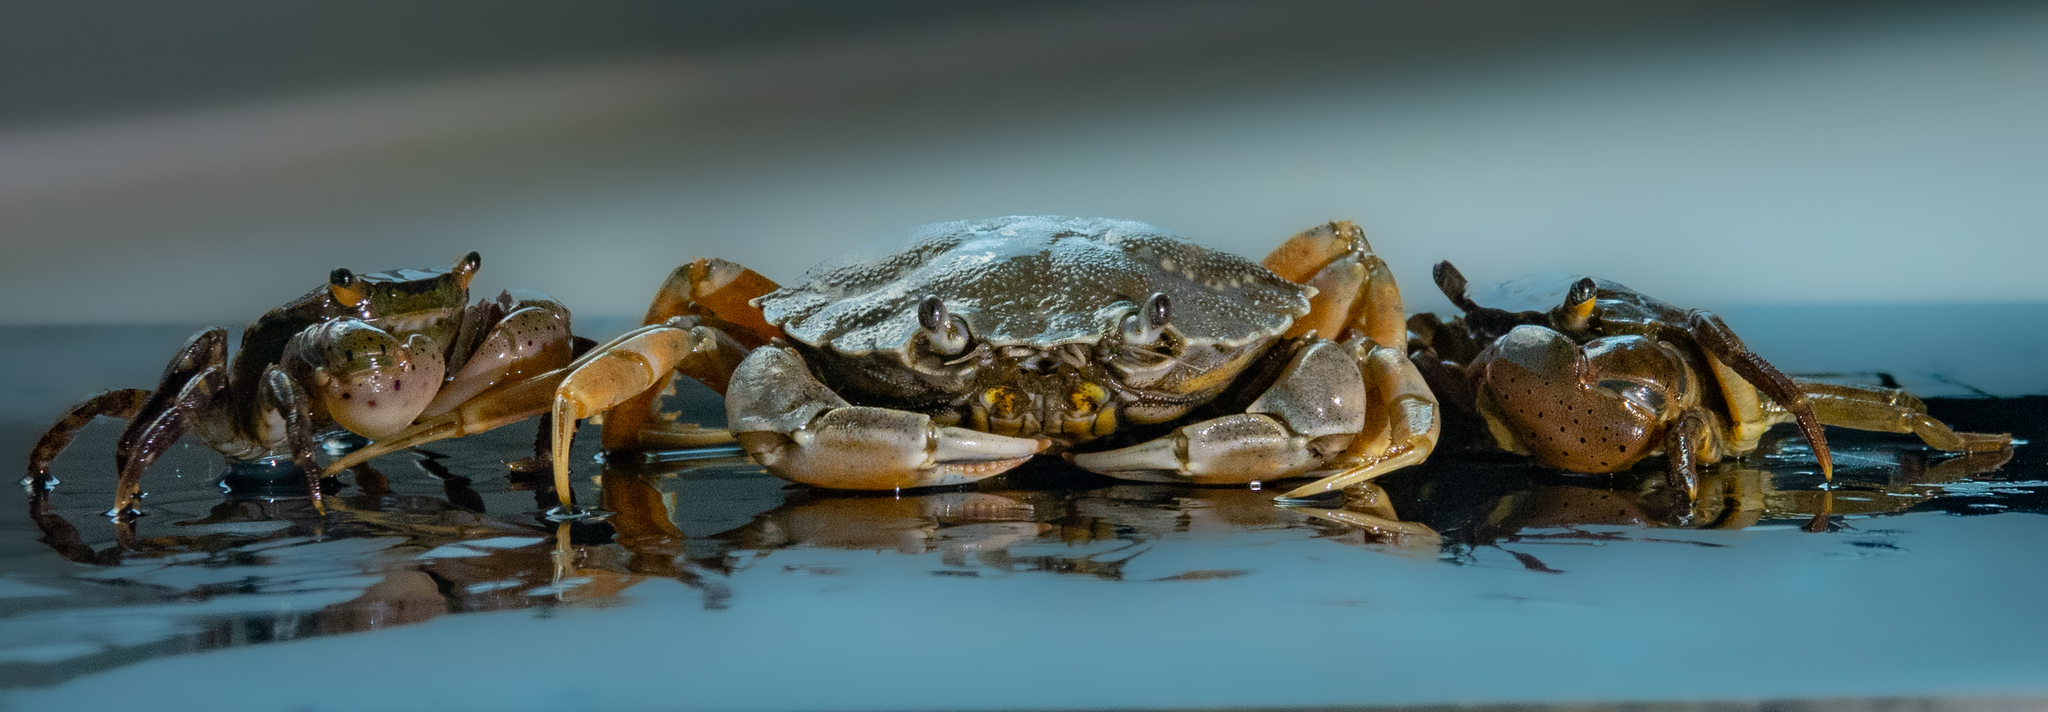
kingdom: Animalia
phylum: Arthropoda
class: Malacostraca
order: Decapoda
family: Carcinidae
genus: Carcinus
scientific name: Carcinus maenas
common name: European green crab
